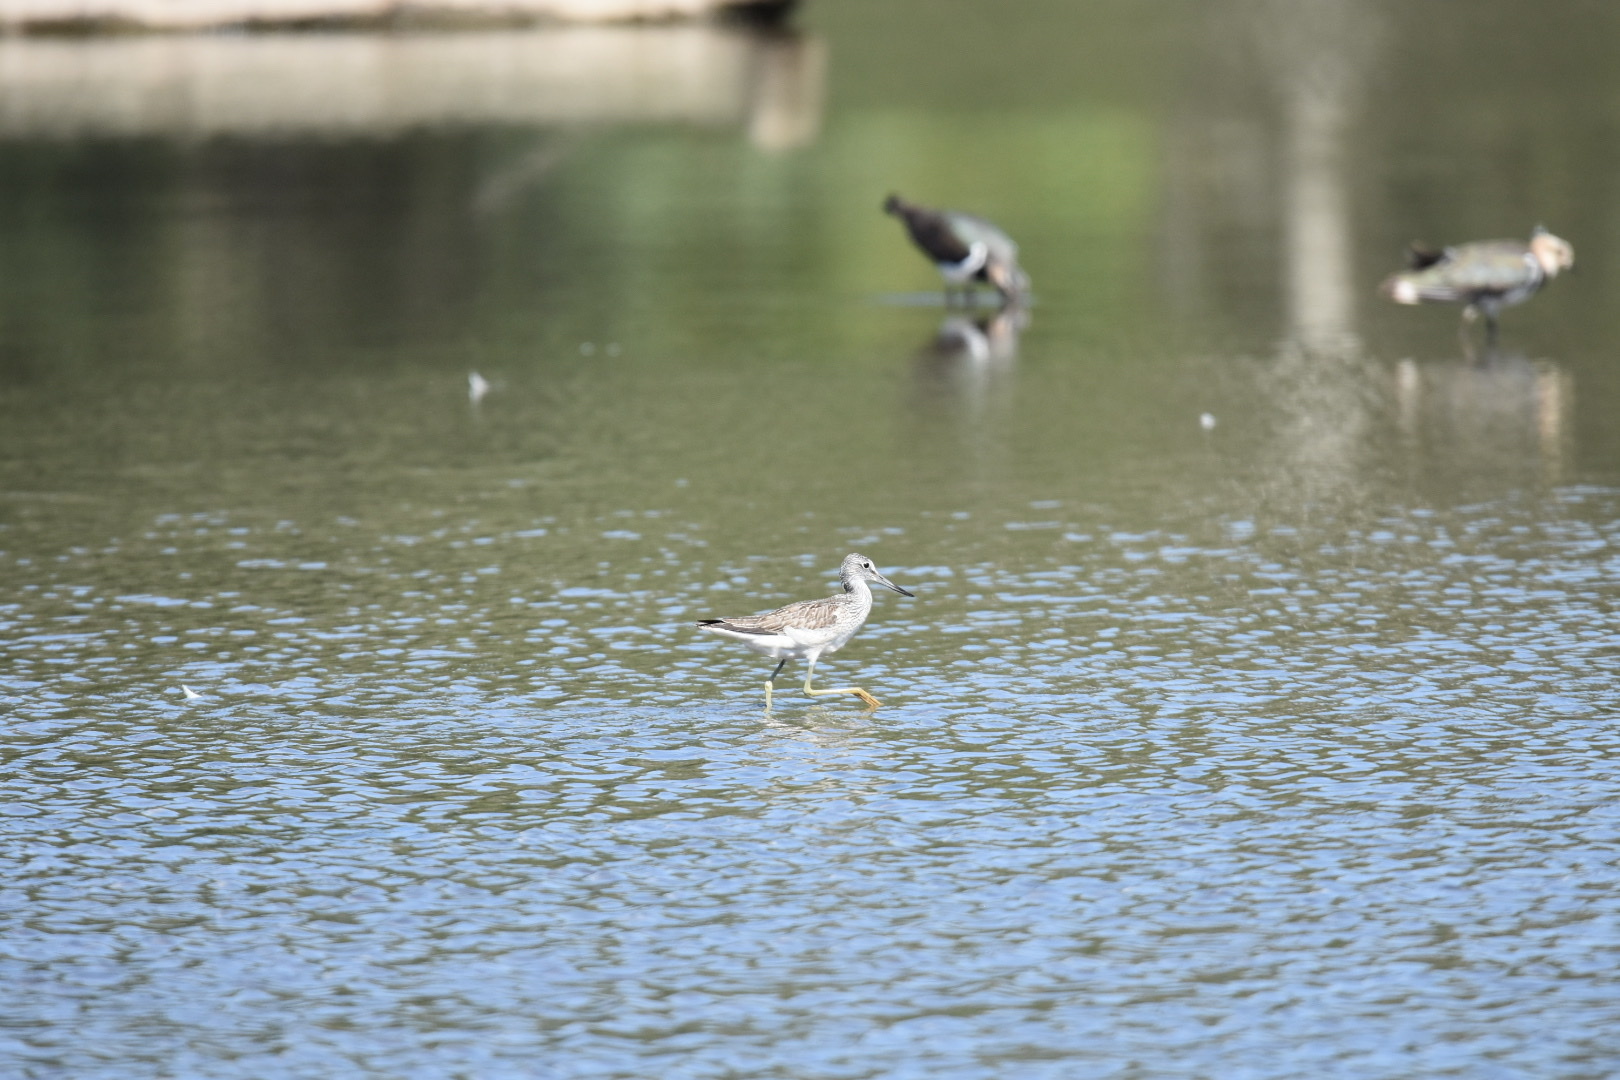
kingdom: Animalia
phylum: Chordata
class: Aves
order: Charadriiformes
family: Scolopacidae
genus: Tringa
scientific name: Tringa nebularia
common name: Common greenshank
